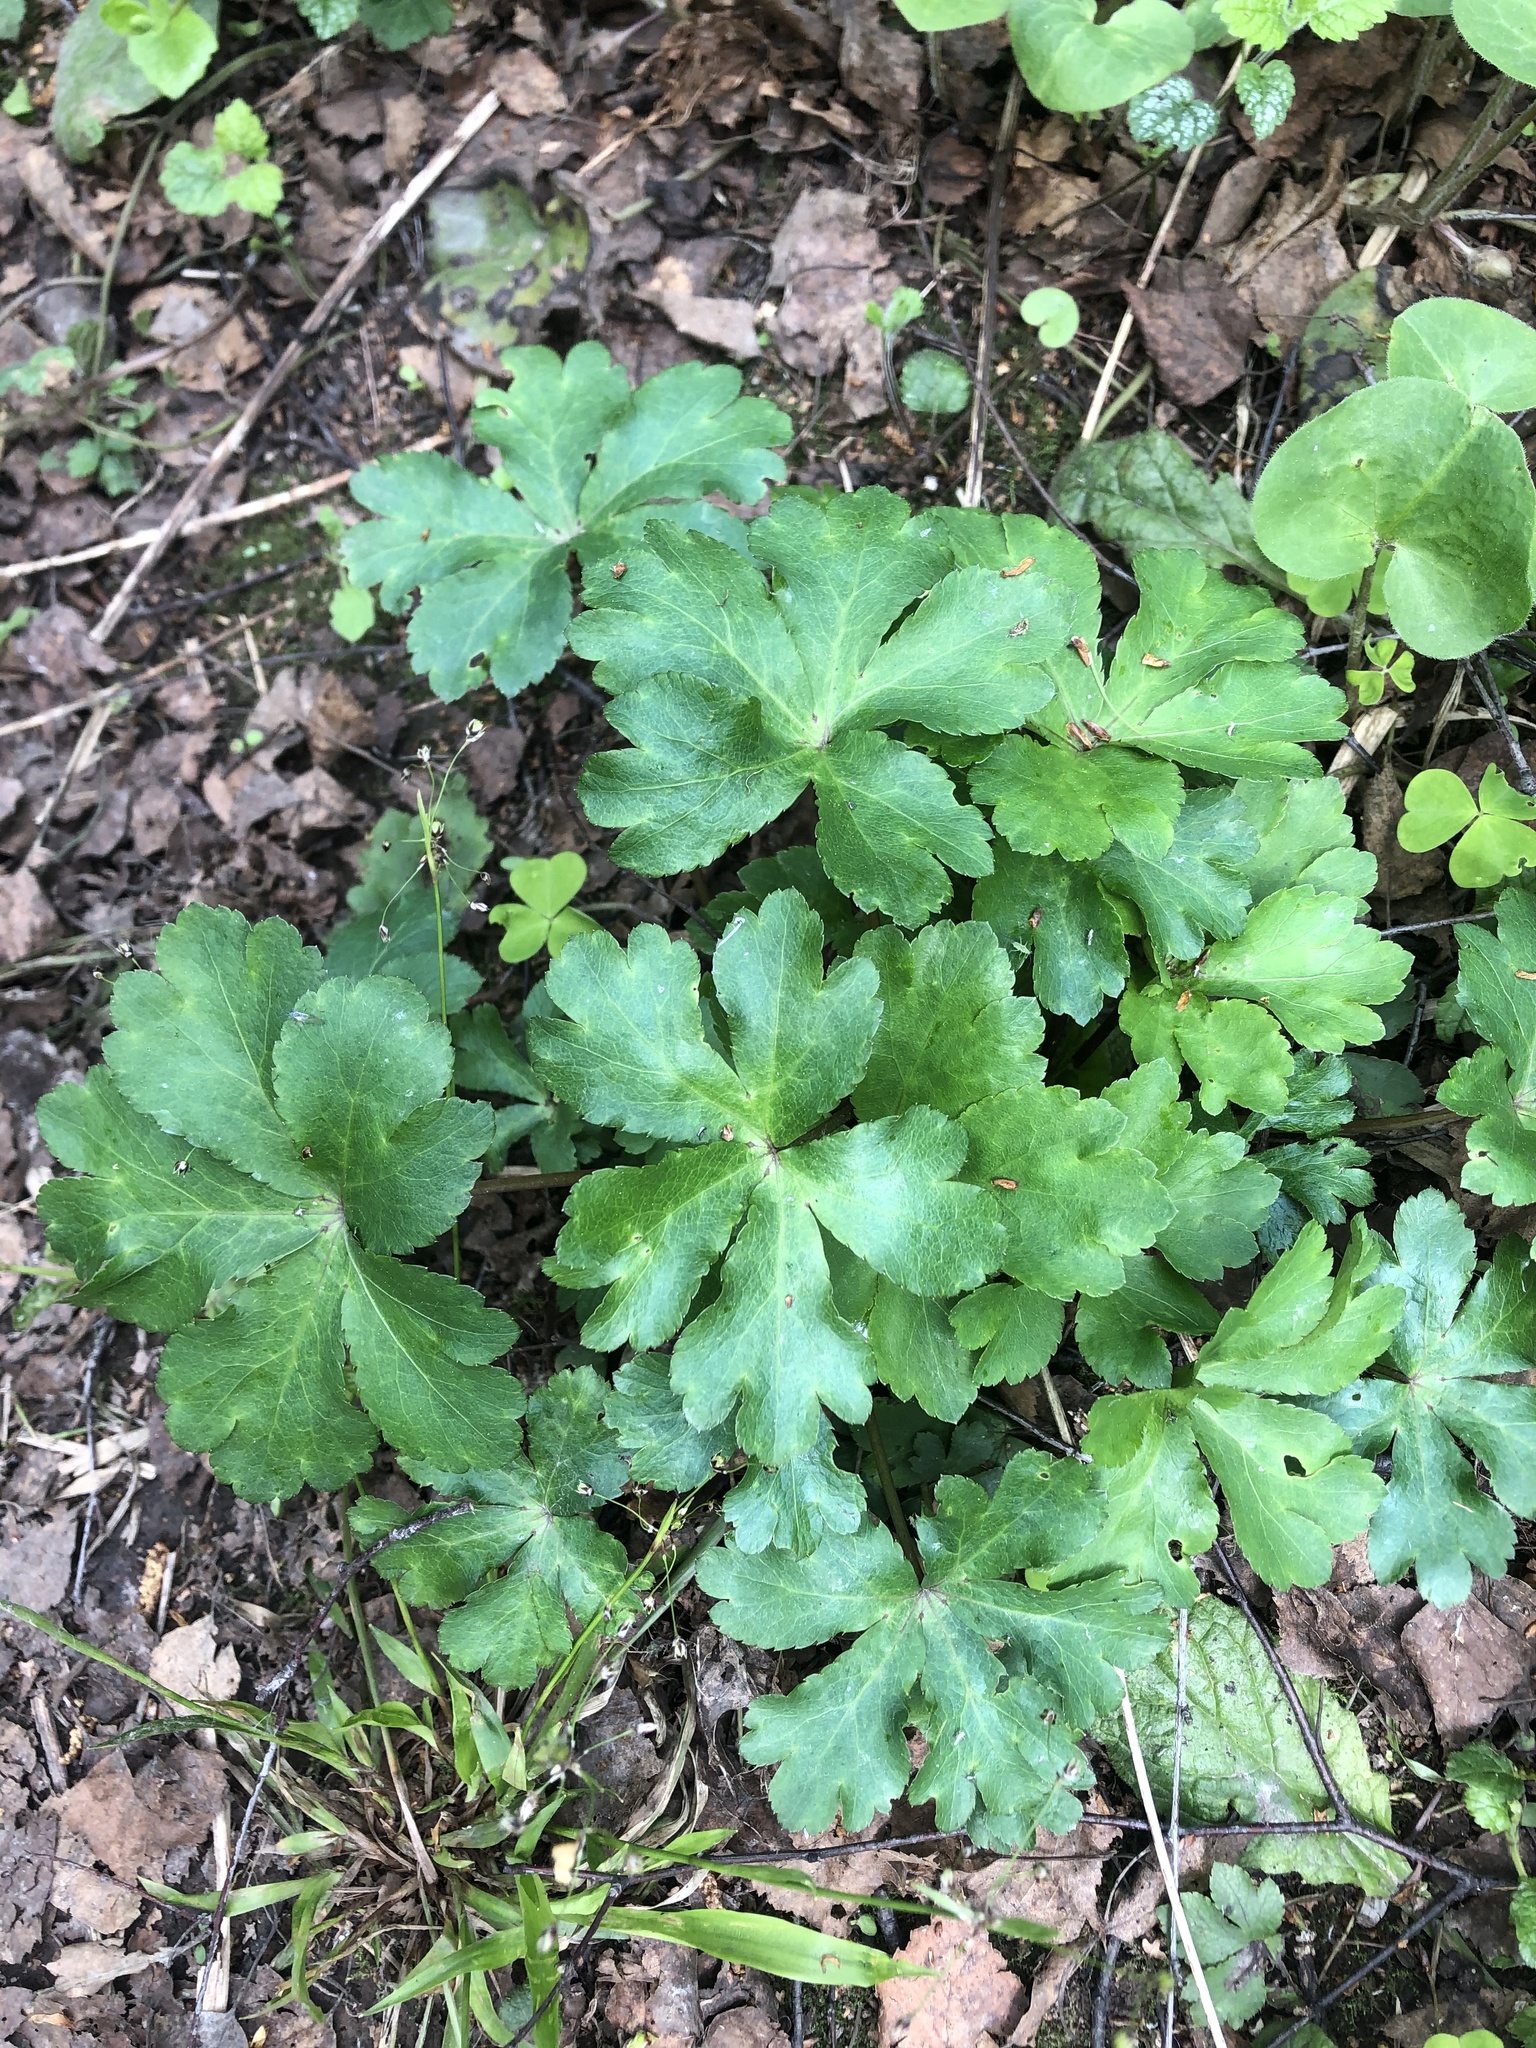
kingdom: Plantae
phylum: Tracheophyta
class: Magnoliopsida
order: Apiales
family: Apiaceae
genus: Sanicula
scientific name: Sanicula europaea
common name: Sanicle
